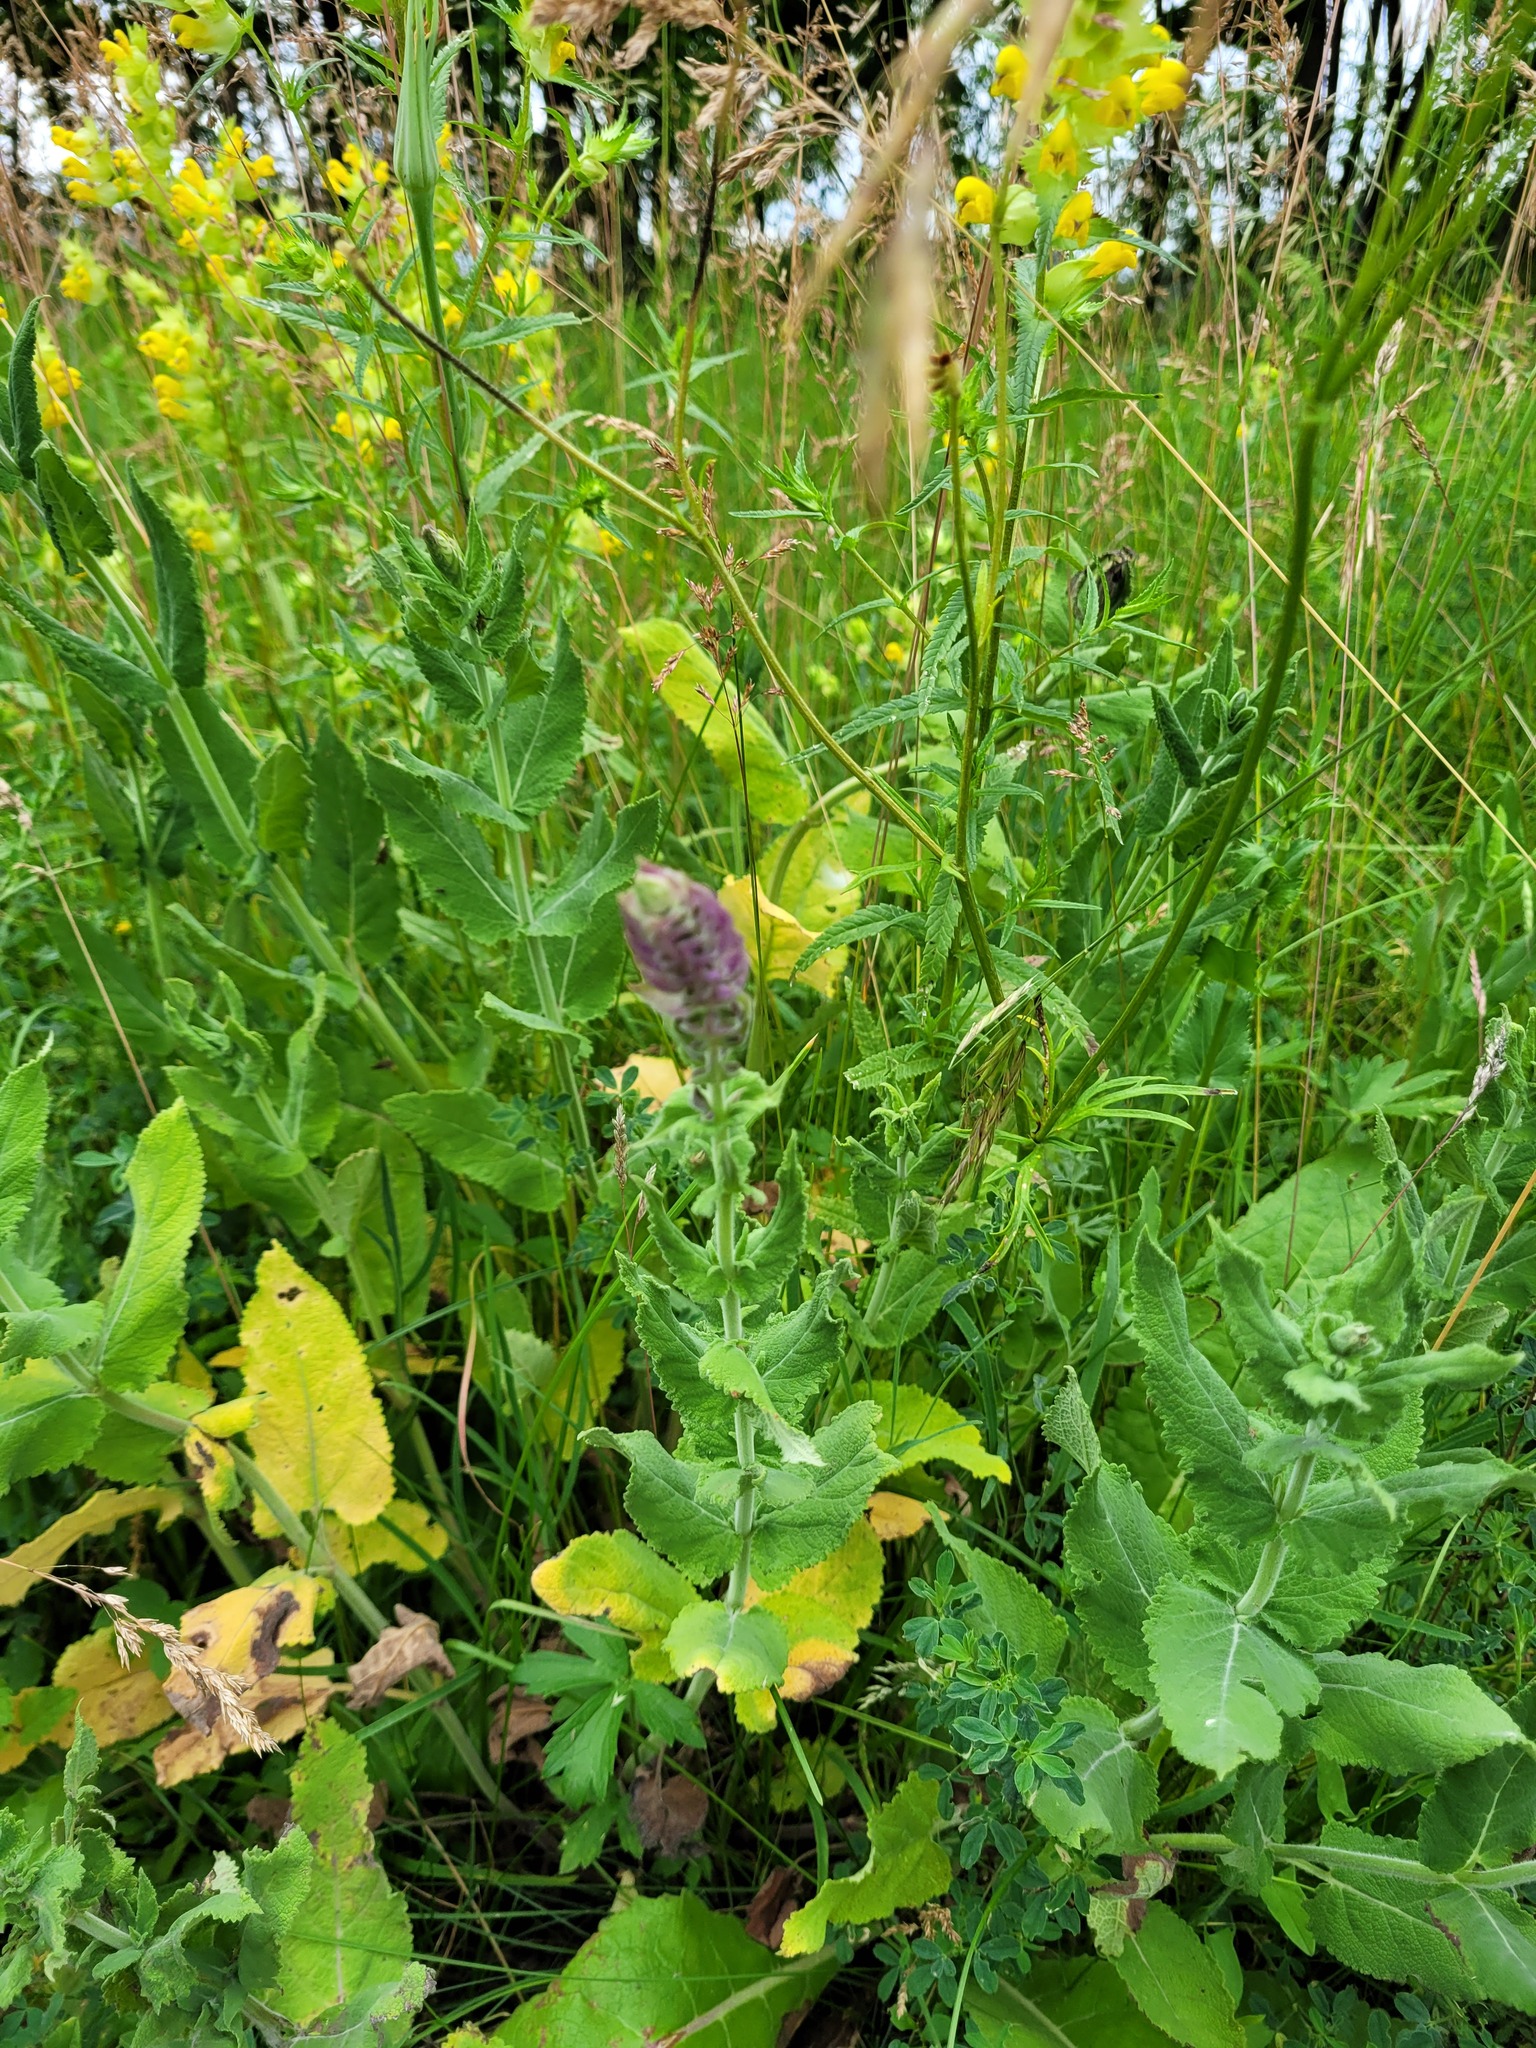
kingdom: Plantae
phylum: Tracheophyta
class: Magnoliopsida
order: Lamiales
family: Lamiaceae
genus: Salvia
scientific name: Salvia nemorosa
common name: Balkan clary
